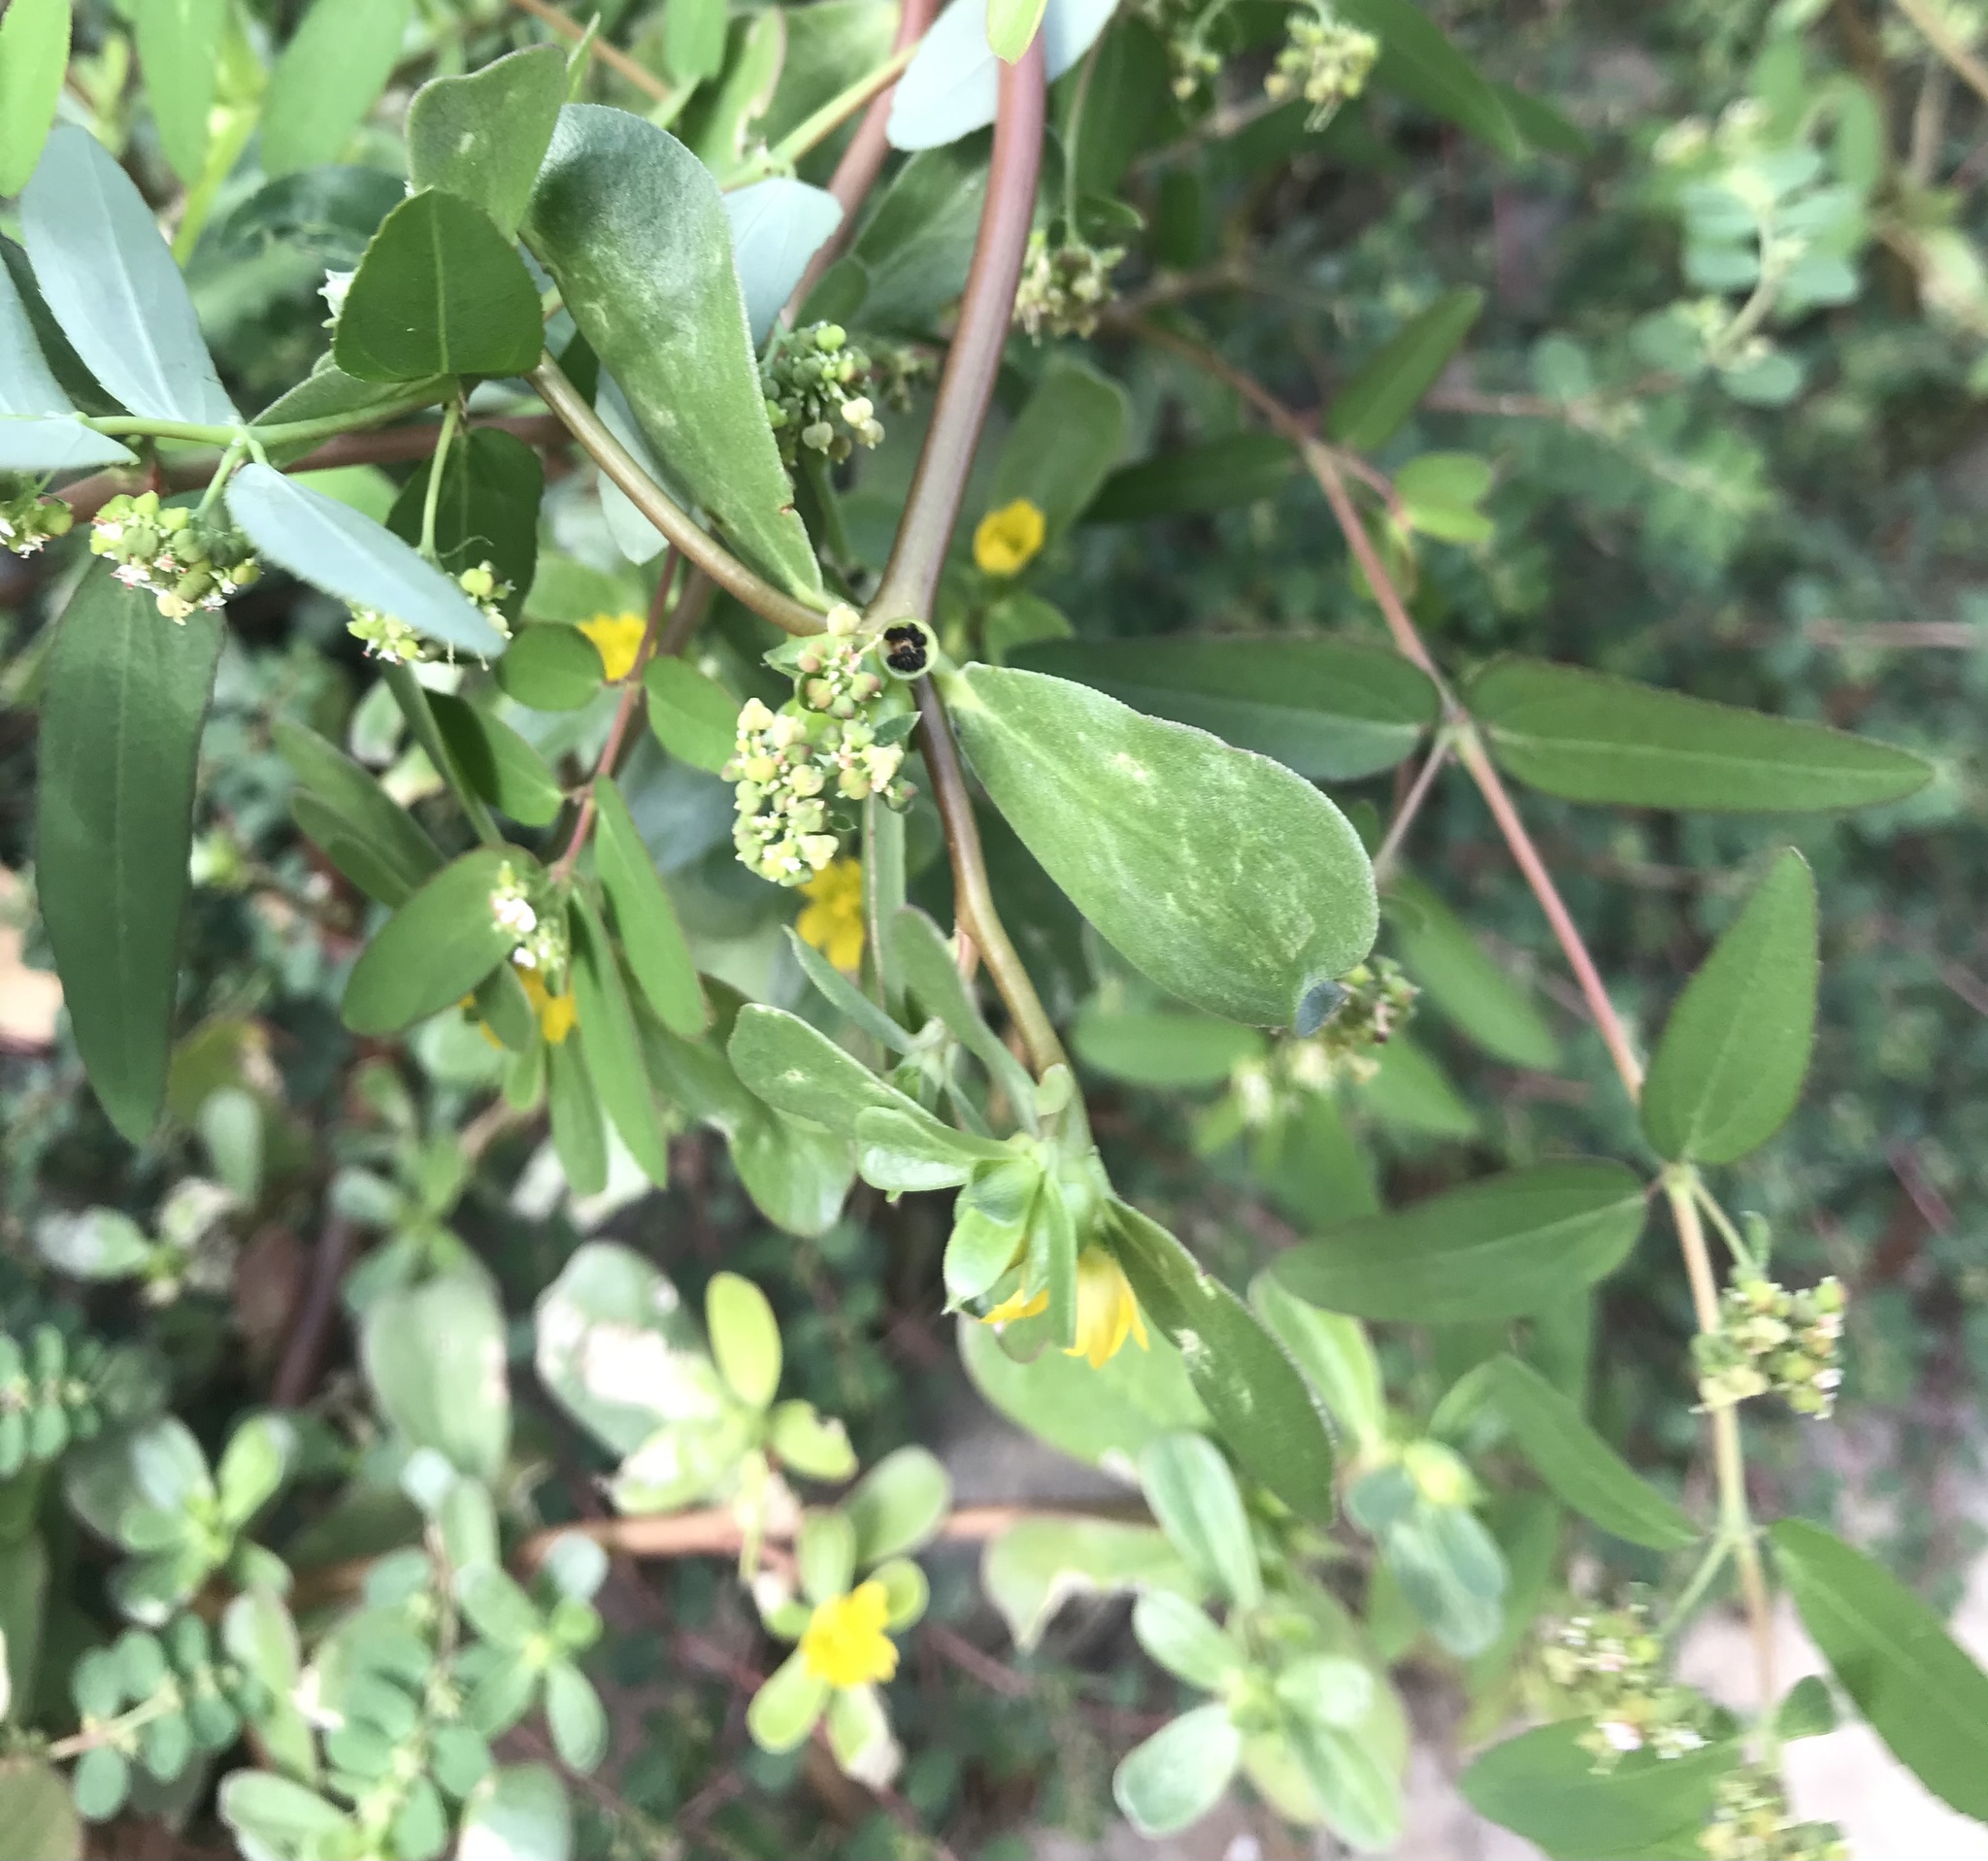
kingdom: Plantae
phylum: Tracheophyta
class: Magnoliopsida
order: Malpighiales
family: Euphorbiaceae
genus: Euphorbia
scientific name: Euphorbia hypericifolia
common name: Graceful sandmat
